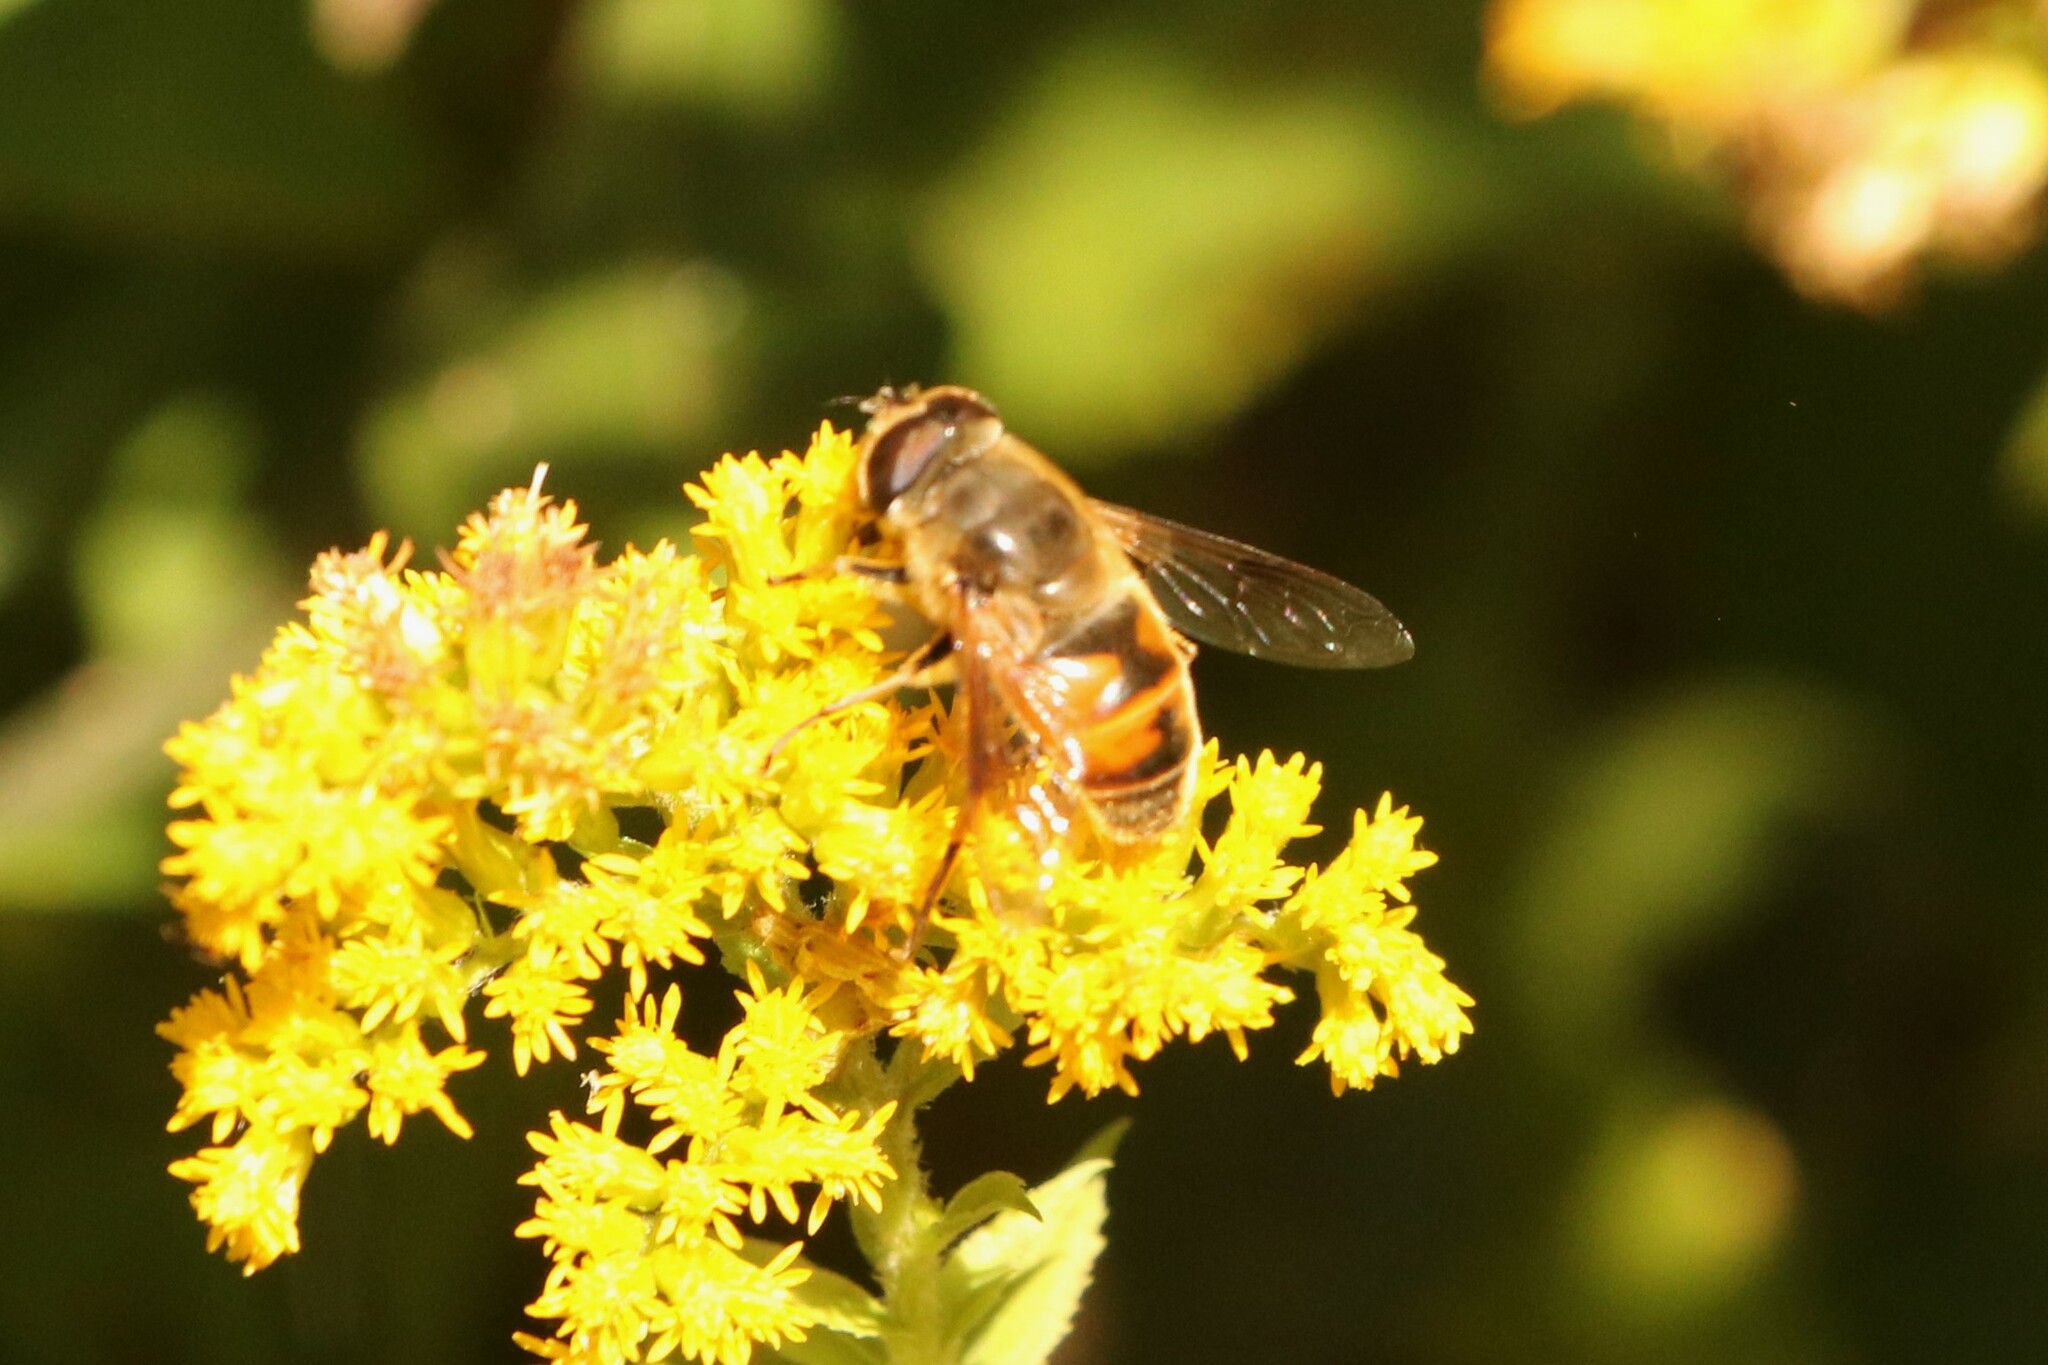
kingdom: Animalia
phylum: Arthropoda
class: Insecta
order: Diptera
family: Syrphidae
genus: Eristalis
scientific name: Eristalis tenax
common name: Drone fly
